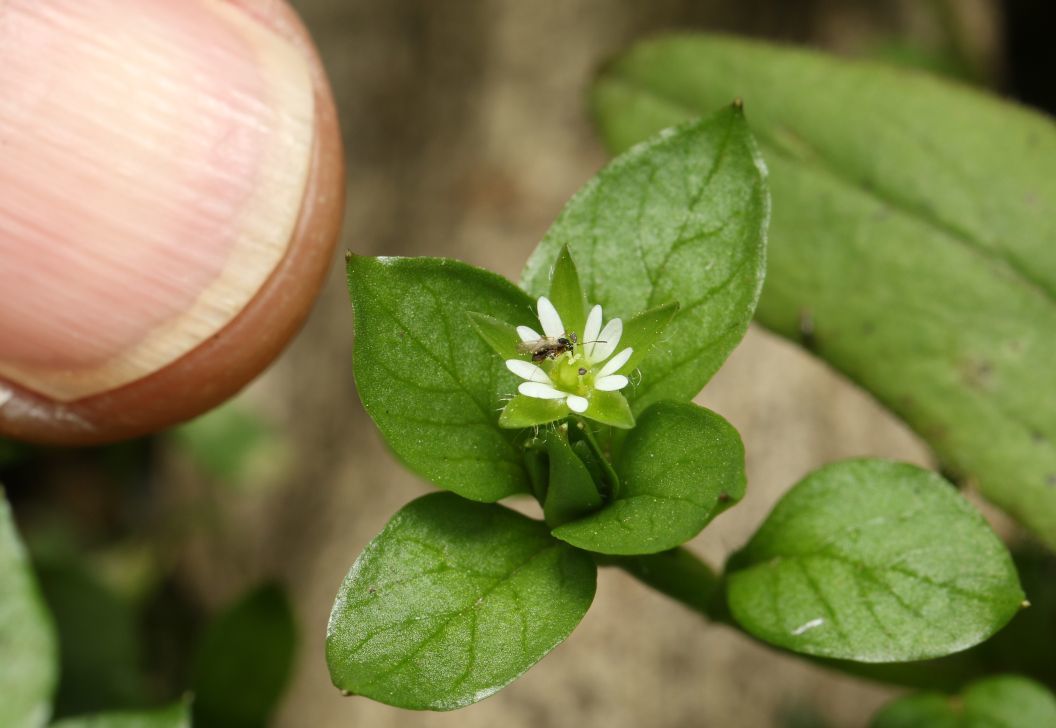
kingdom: Plantae
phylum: Tracheophyta
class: Magnoliopsida
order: Caryophyllales
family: Caryophyllaceae
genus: Stellaria
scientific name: Stellaria media
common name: Common chickweed
